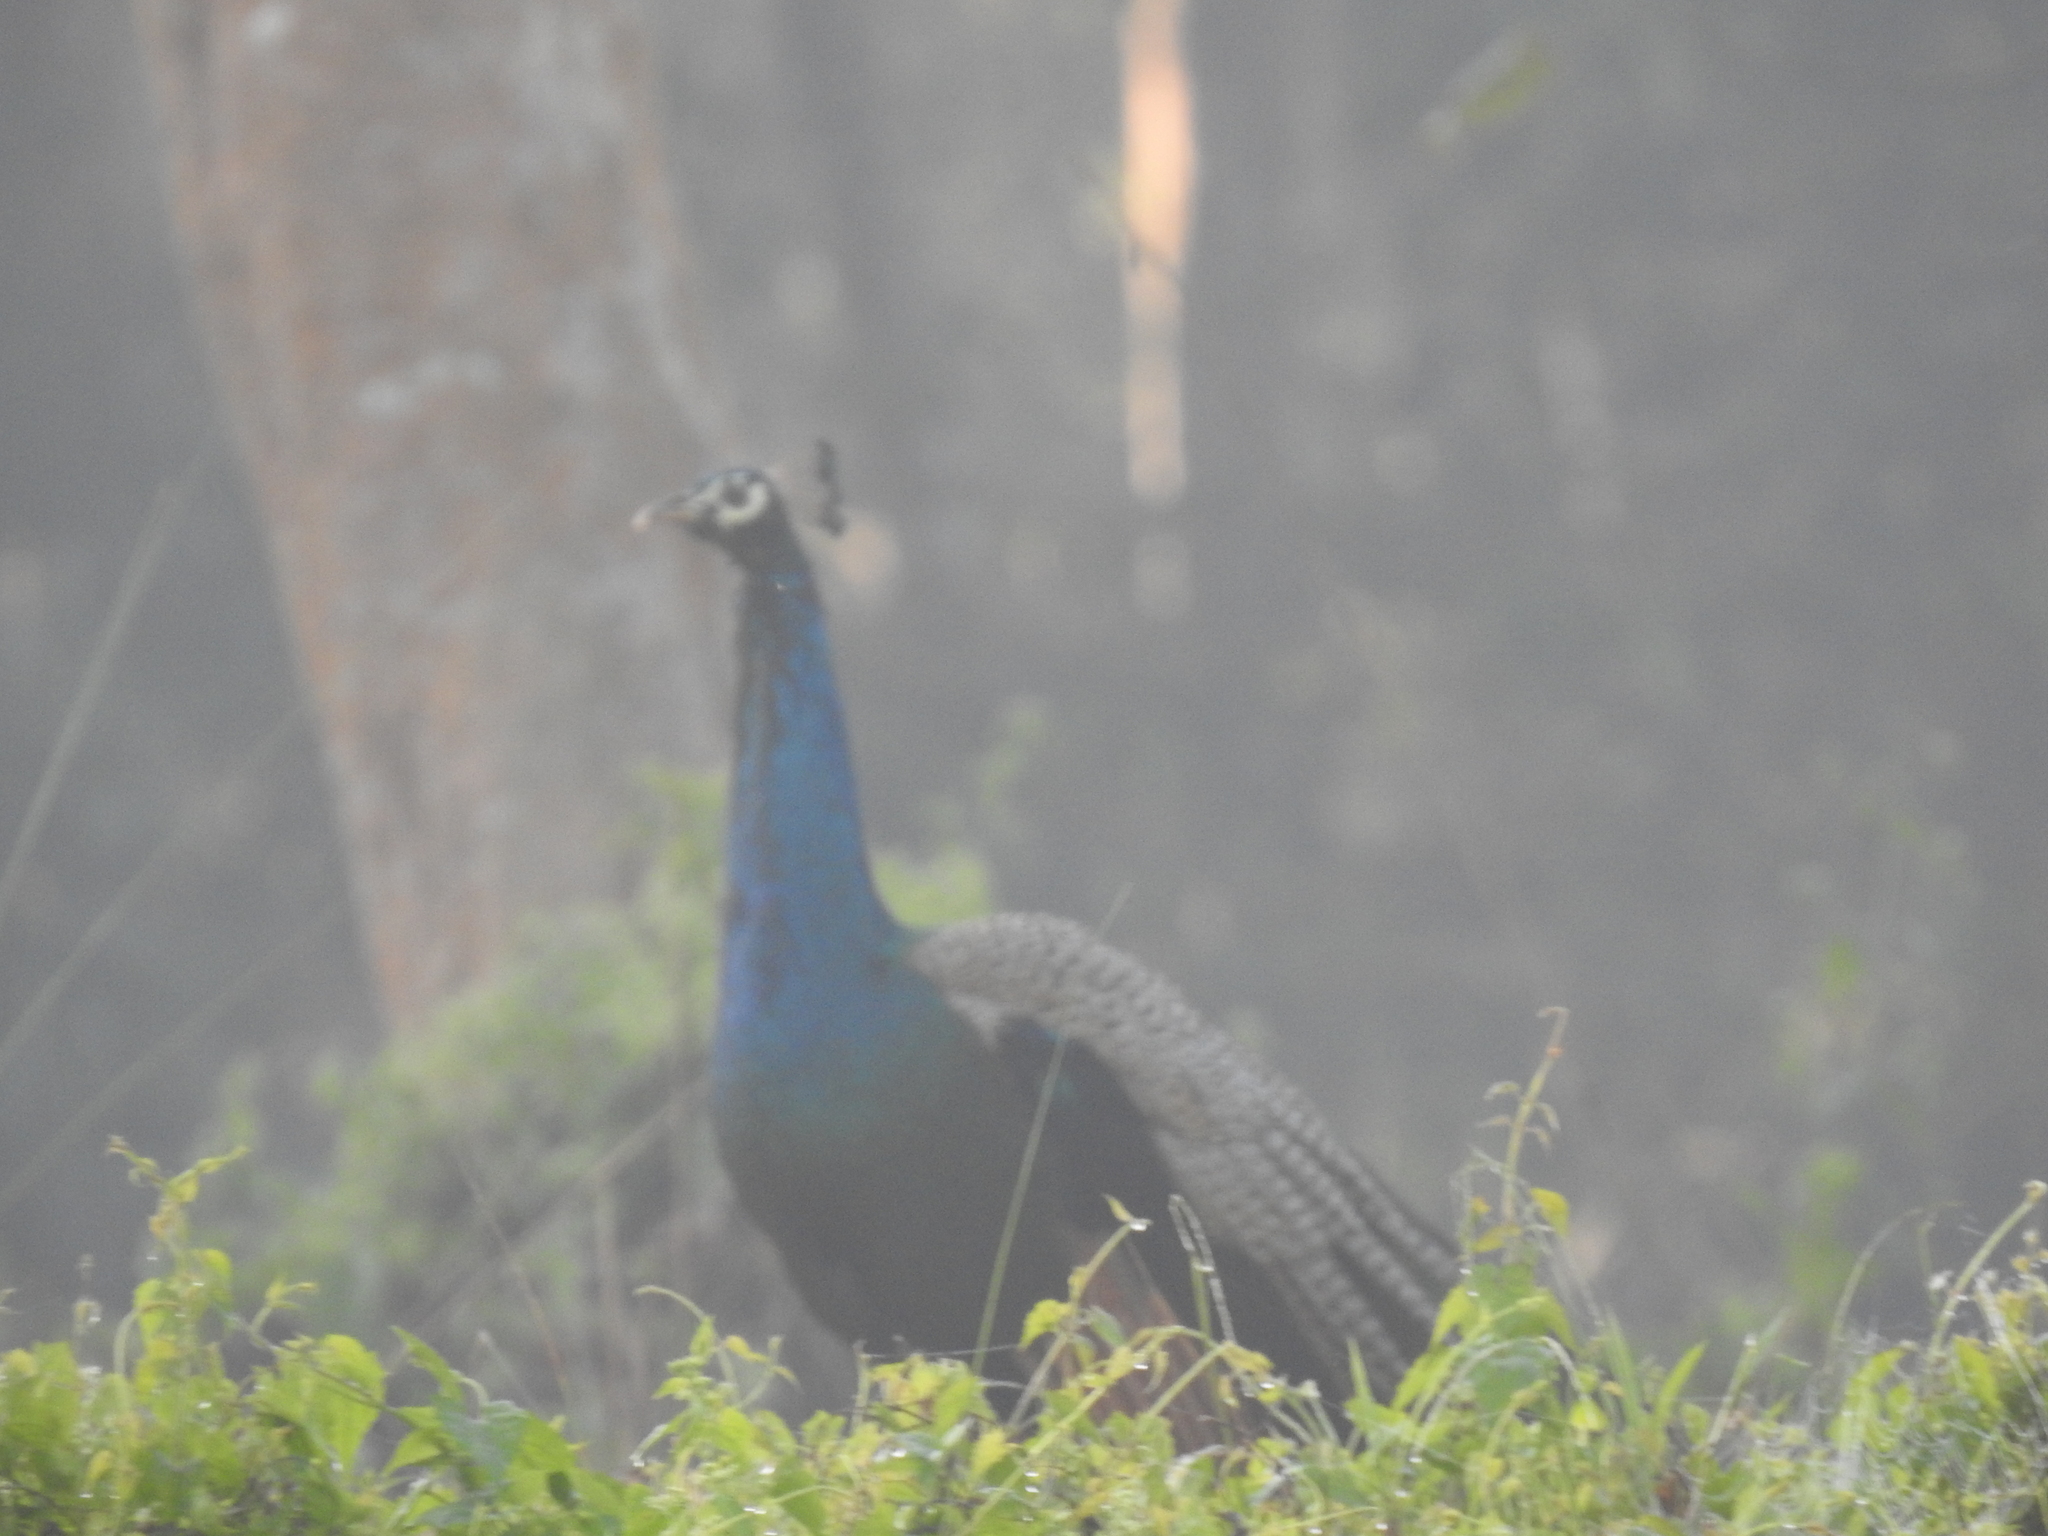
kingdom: Animalia
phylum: Chordata
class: Aves
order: Galliformes
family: Phasianidae
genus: Pavo
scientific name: Pavo cristatus
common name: Indian peafowl
